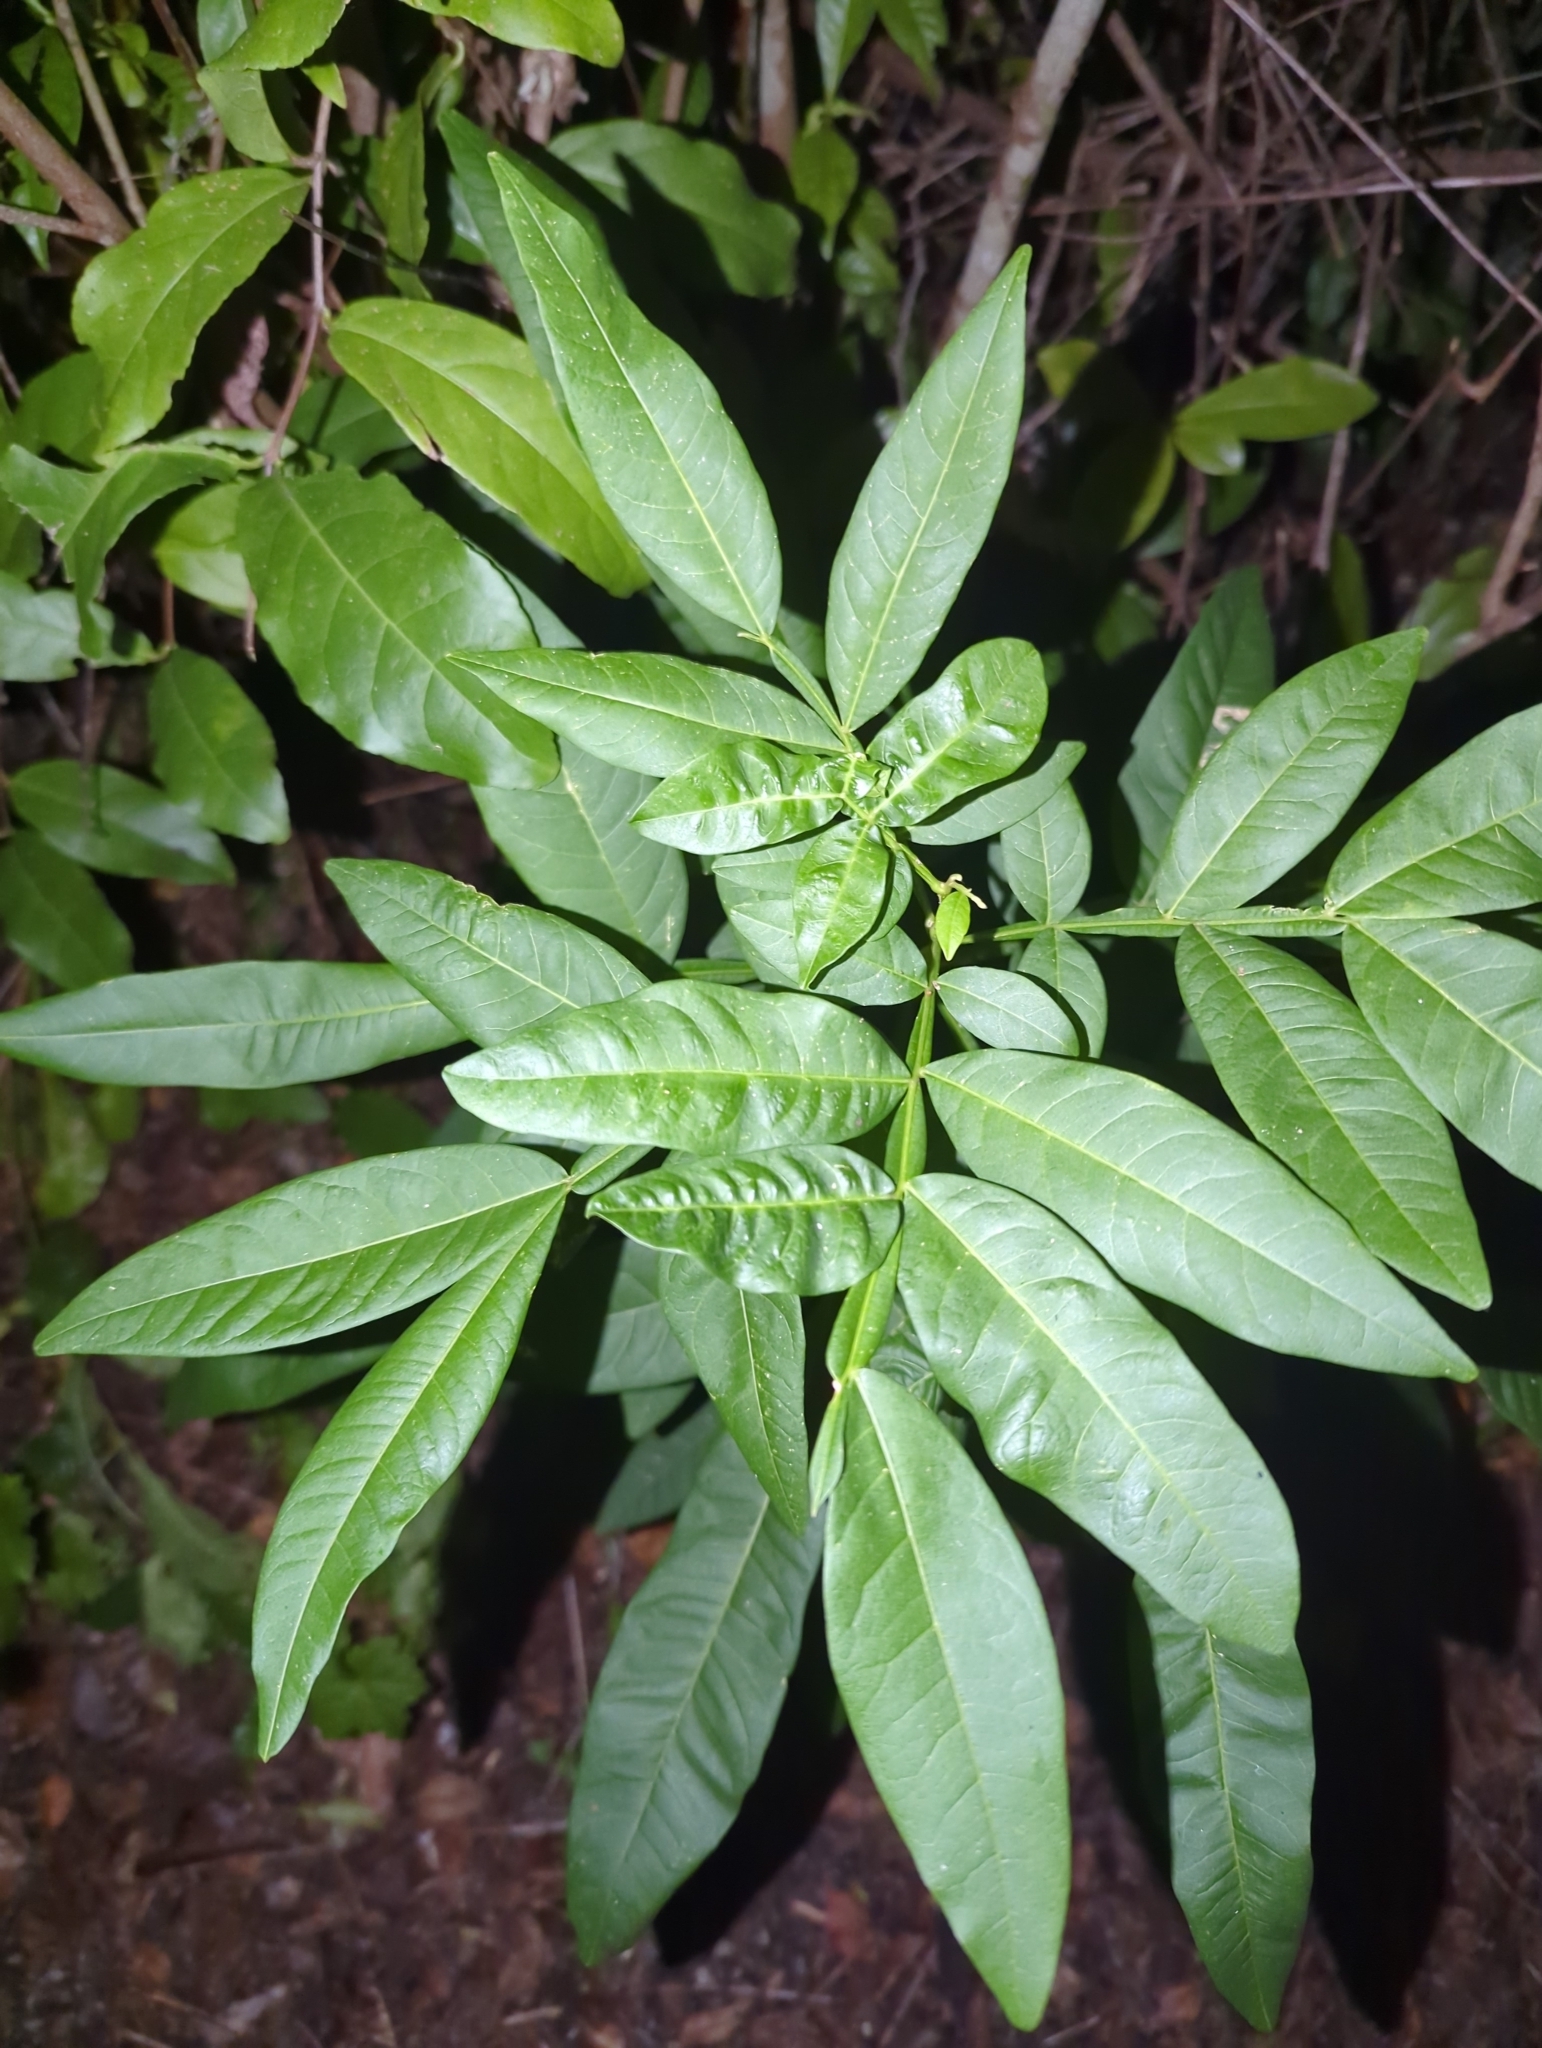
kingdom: Plantae
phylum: Tracheophyta
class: Magnoliopsida
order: Sapindales
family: Sapindaceae
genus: Sapindus
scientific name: Sapindus saponaria
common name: Wingleaf soapberry
